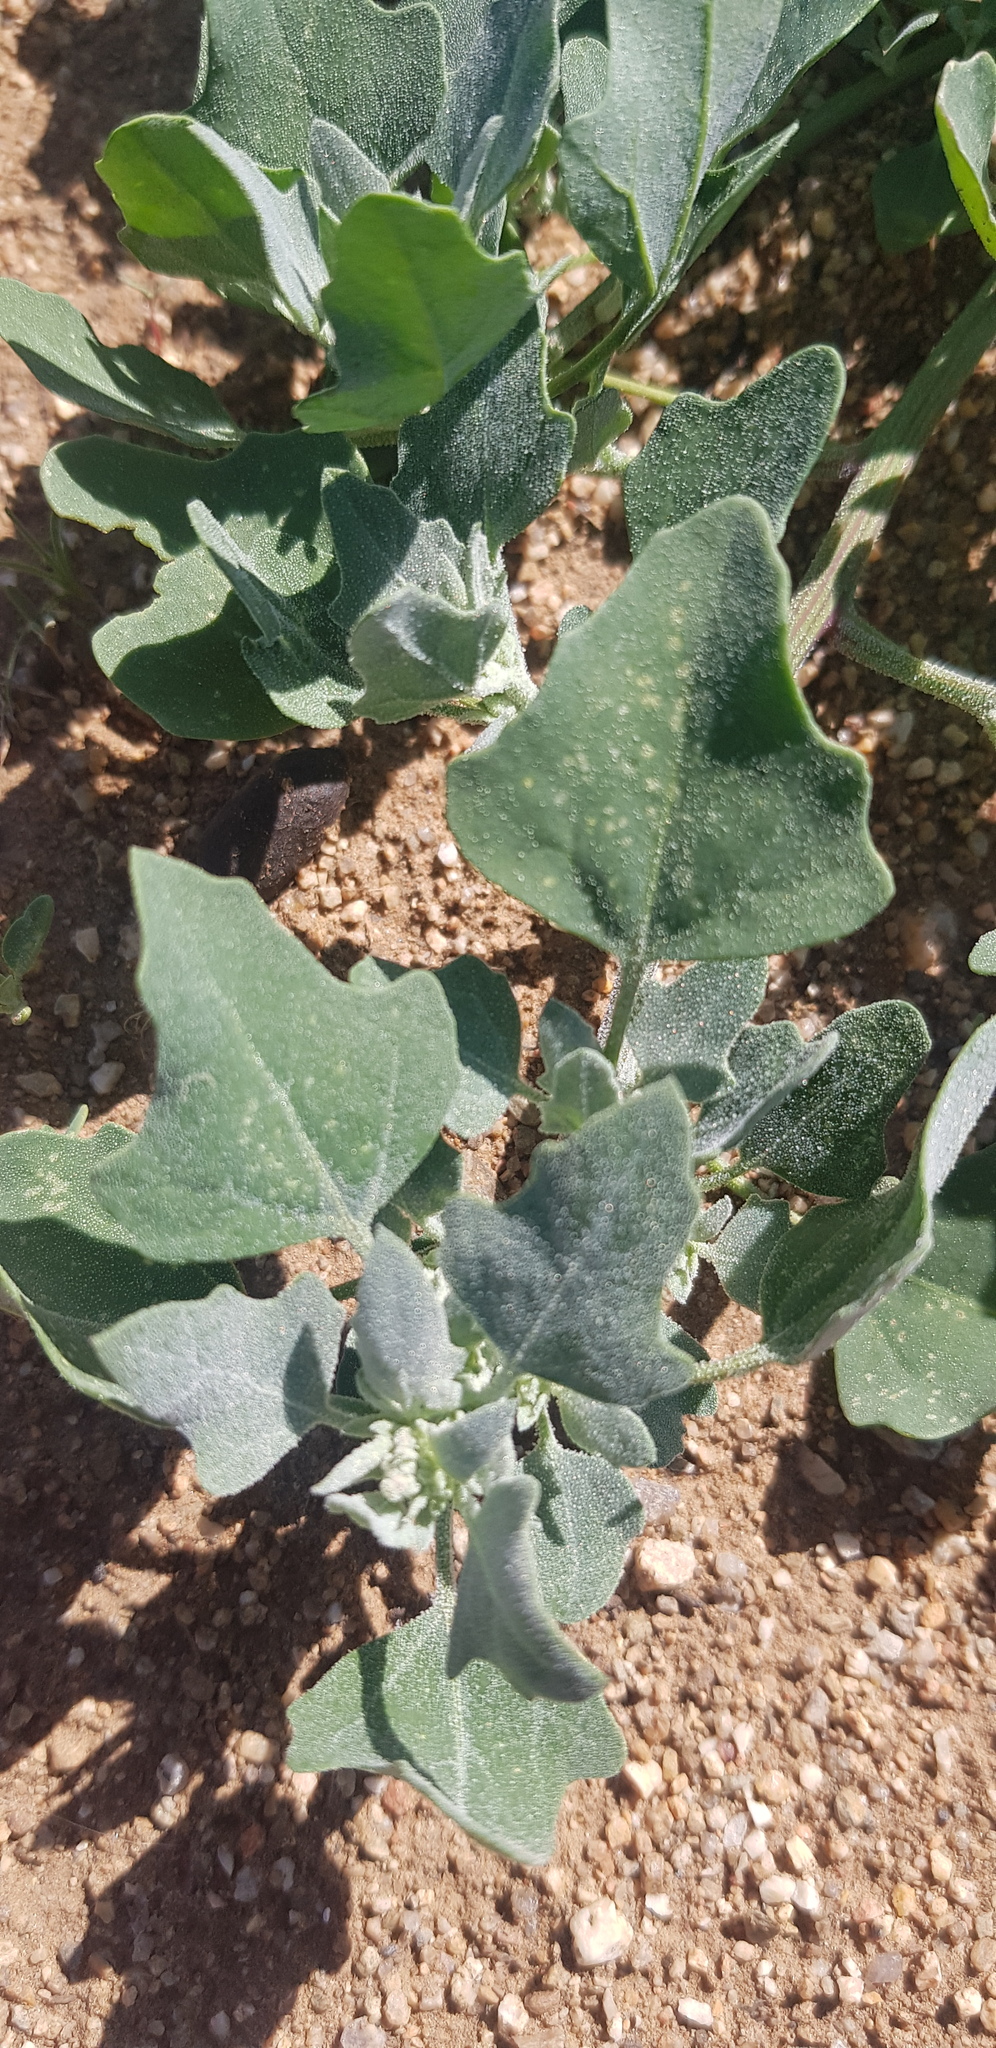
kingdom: Plantae
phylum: Tracheophyta
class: Magnoliopsida
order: Caryophyllales
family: Amaranthaceae
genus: Chenopodium
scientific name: Chenopodium karoi
